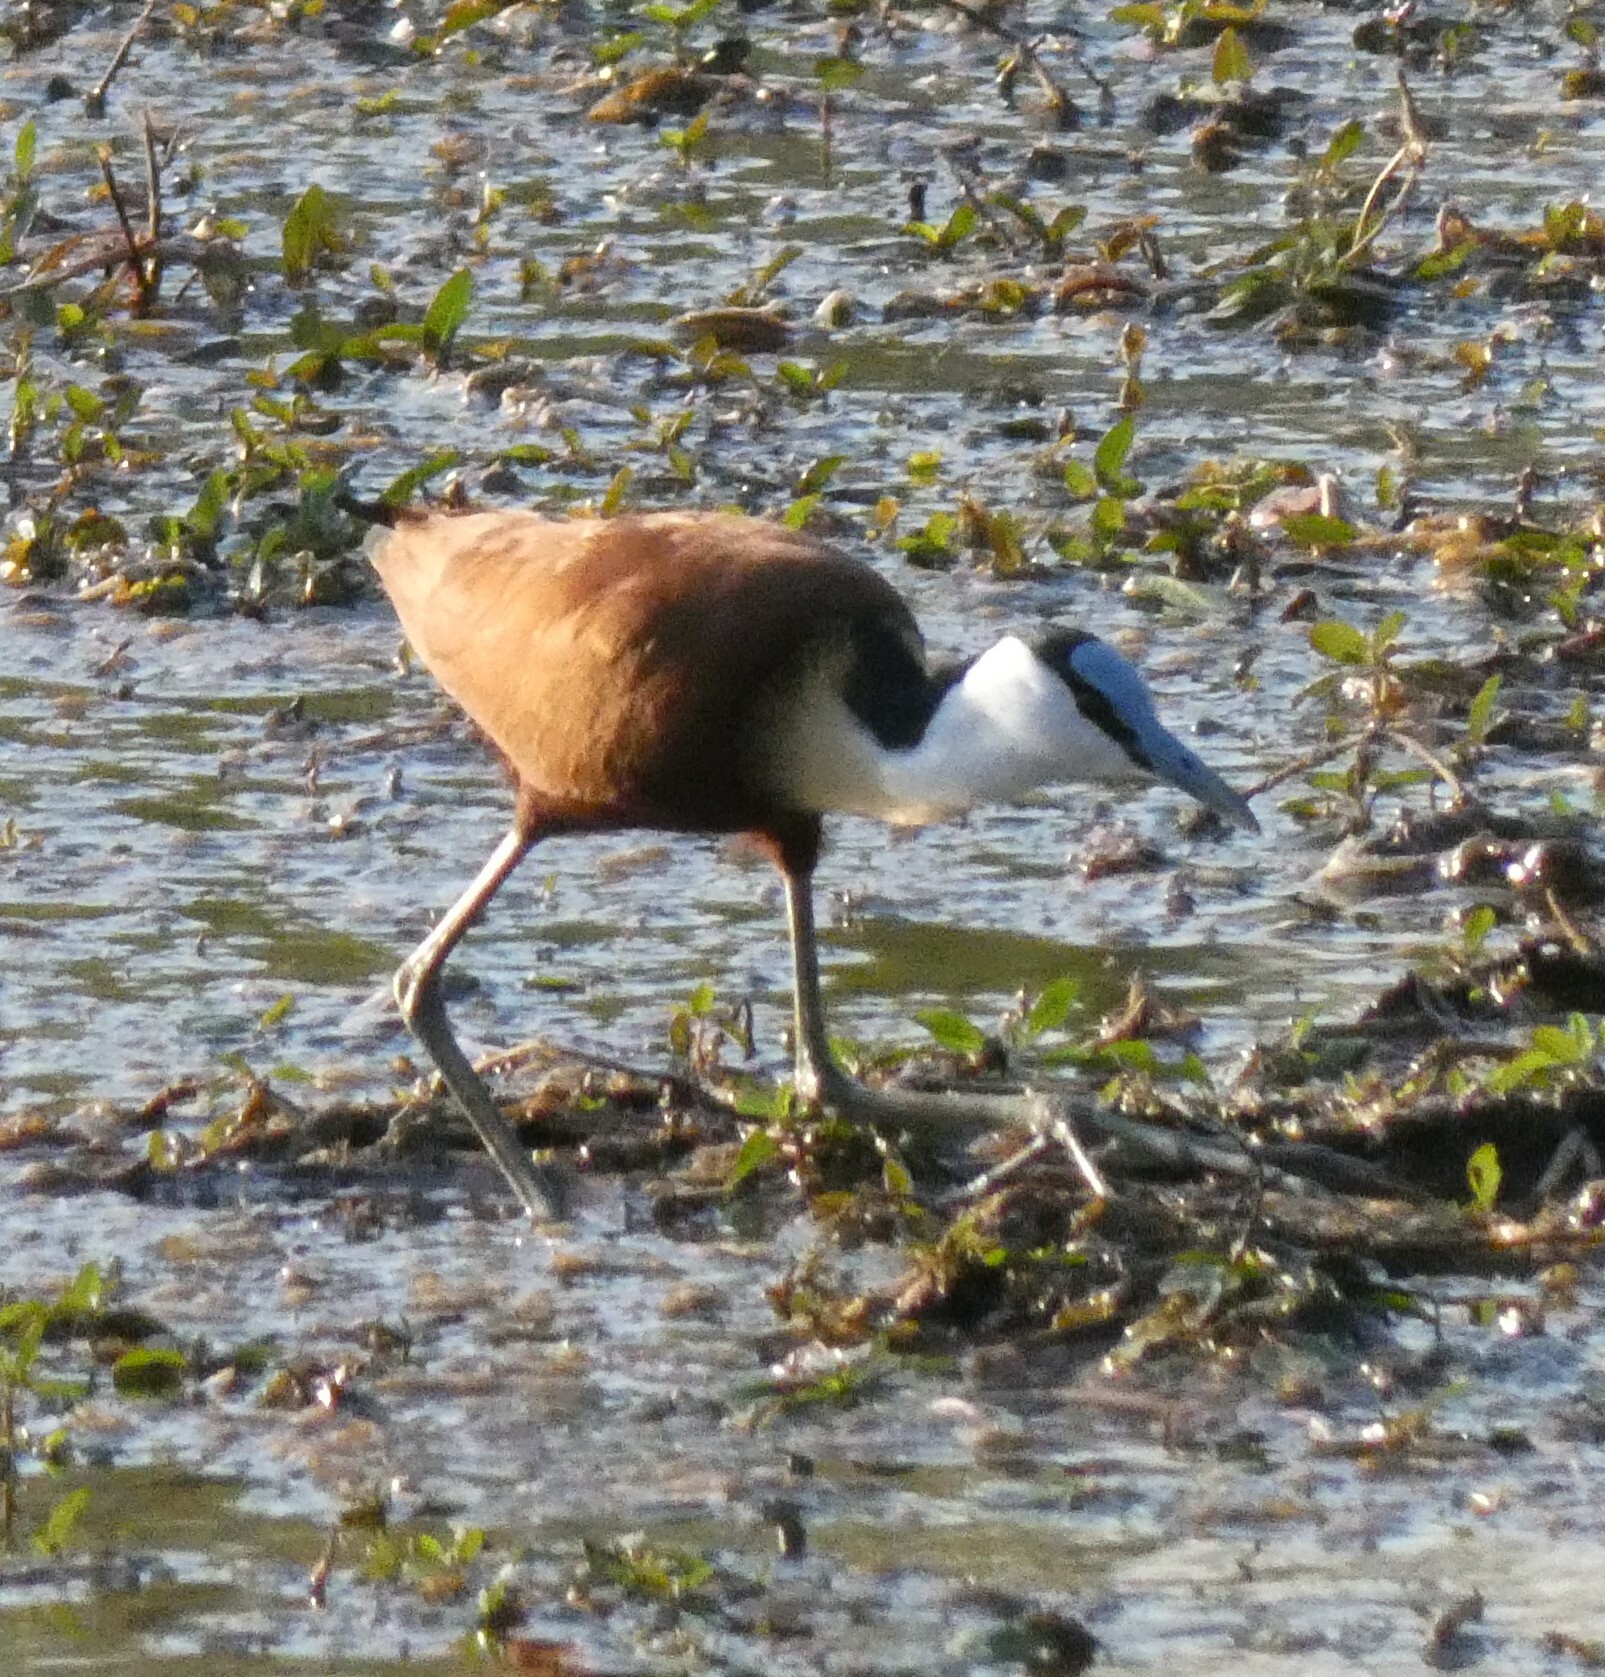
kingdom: Animalia
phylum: Chordata
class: Aves
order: Charadriiformes
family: Jacanidae
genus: Actophilornis
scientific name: Actophilornis africanus
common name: African jacana
